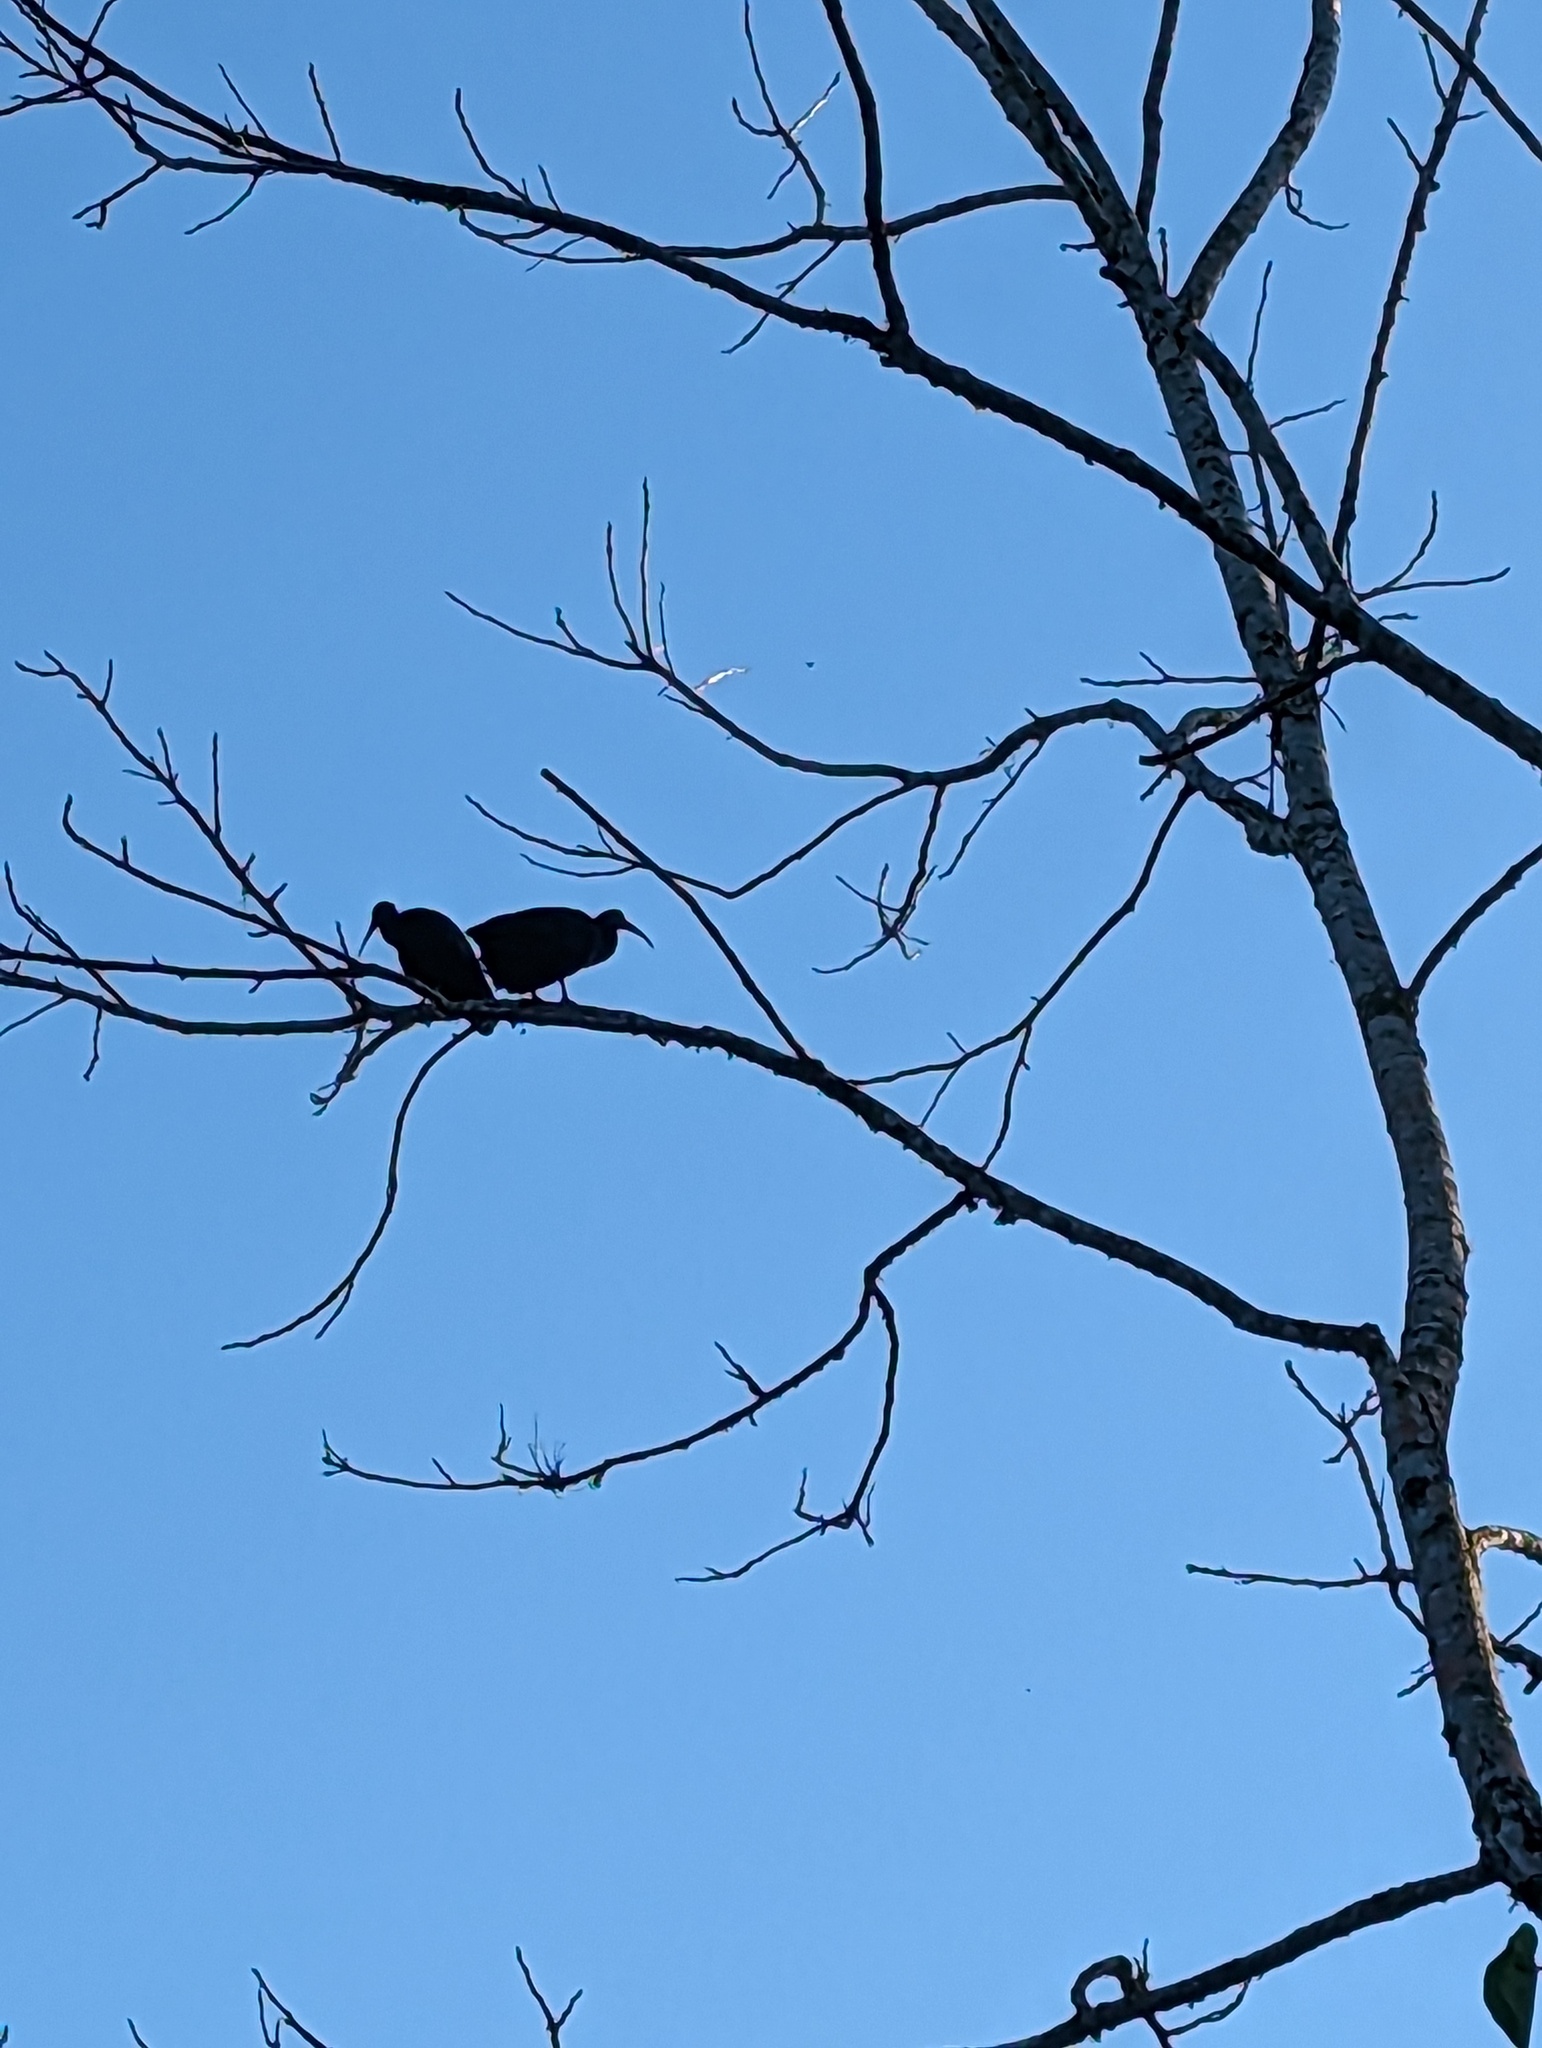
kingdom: Animalia
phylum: Chordata
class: Aves
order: Pelecaniformes
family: Threskiornithidae
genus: Mesembrinibis
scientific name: Mesembrinibis cayennensis
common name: Green ibis
